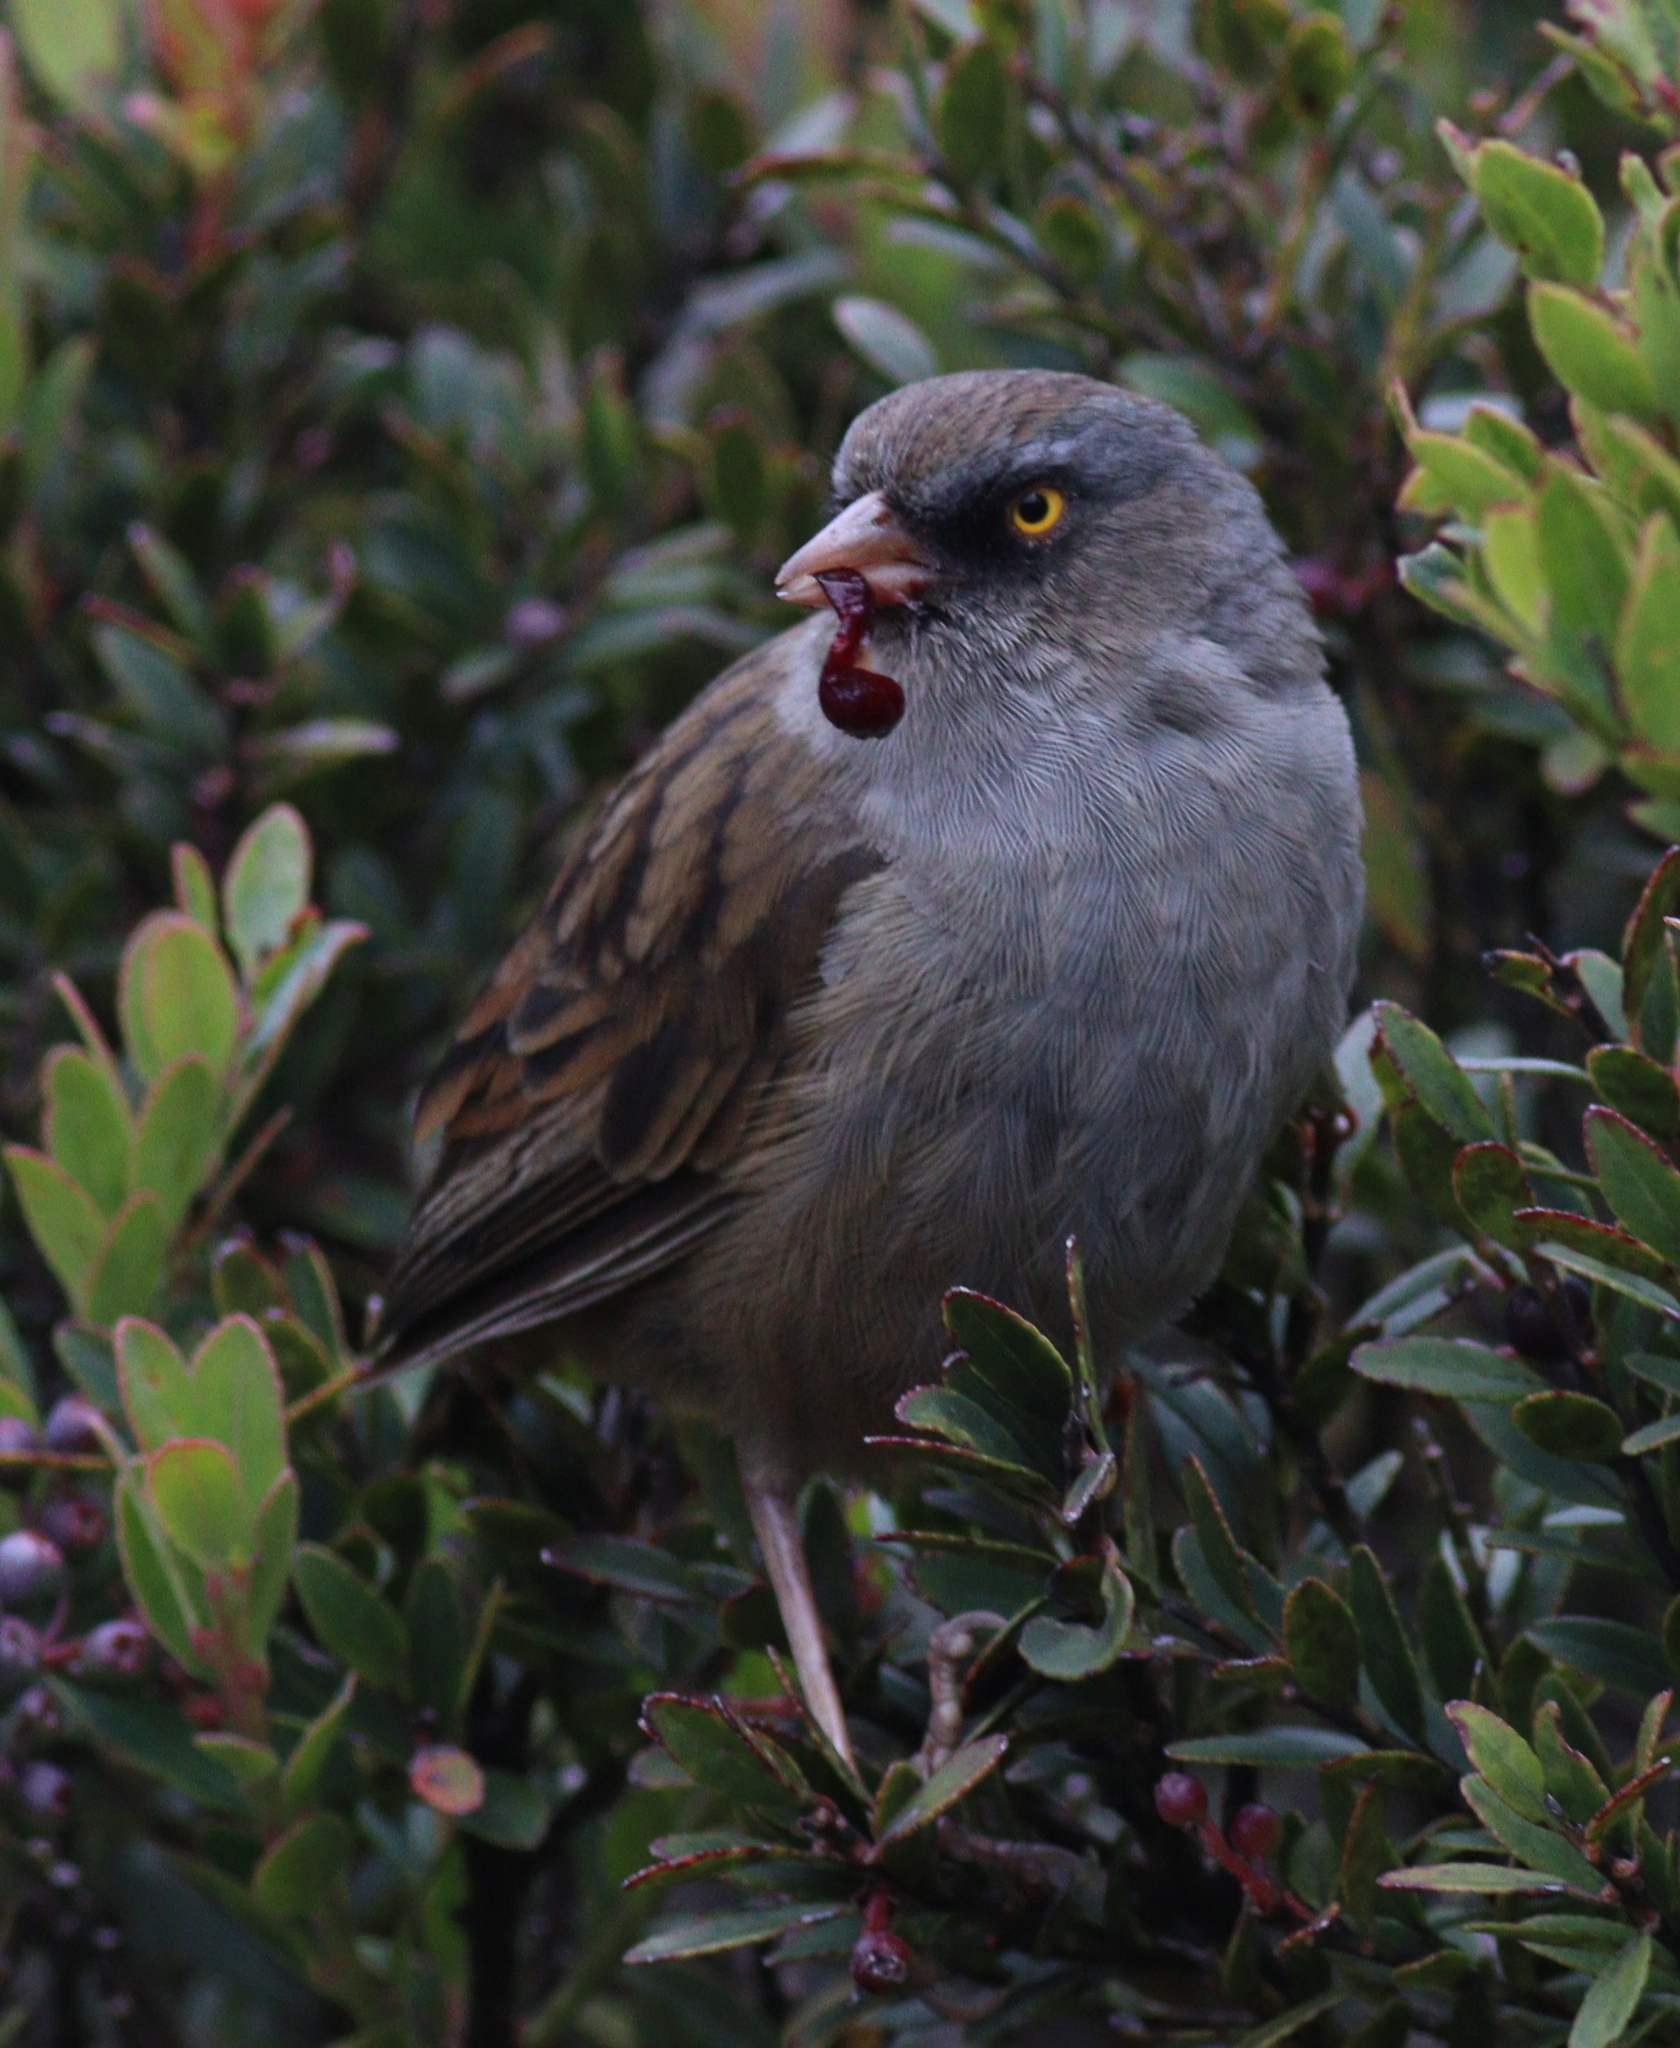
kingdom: Animalia
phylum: Chordata
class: Aves
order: Passeriformes
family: Passerellidae
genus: Junco
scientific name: Junco vulcani
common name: Volcano junco
